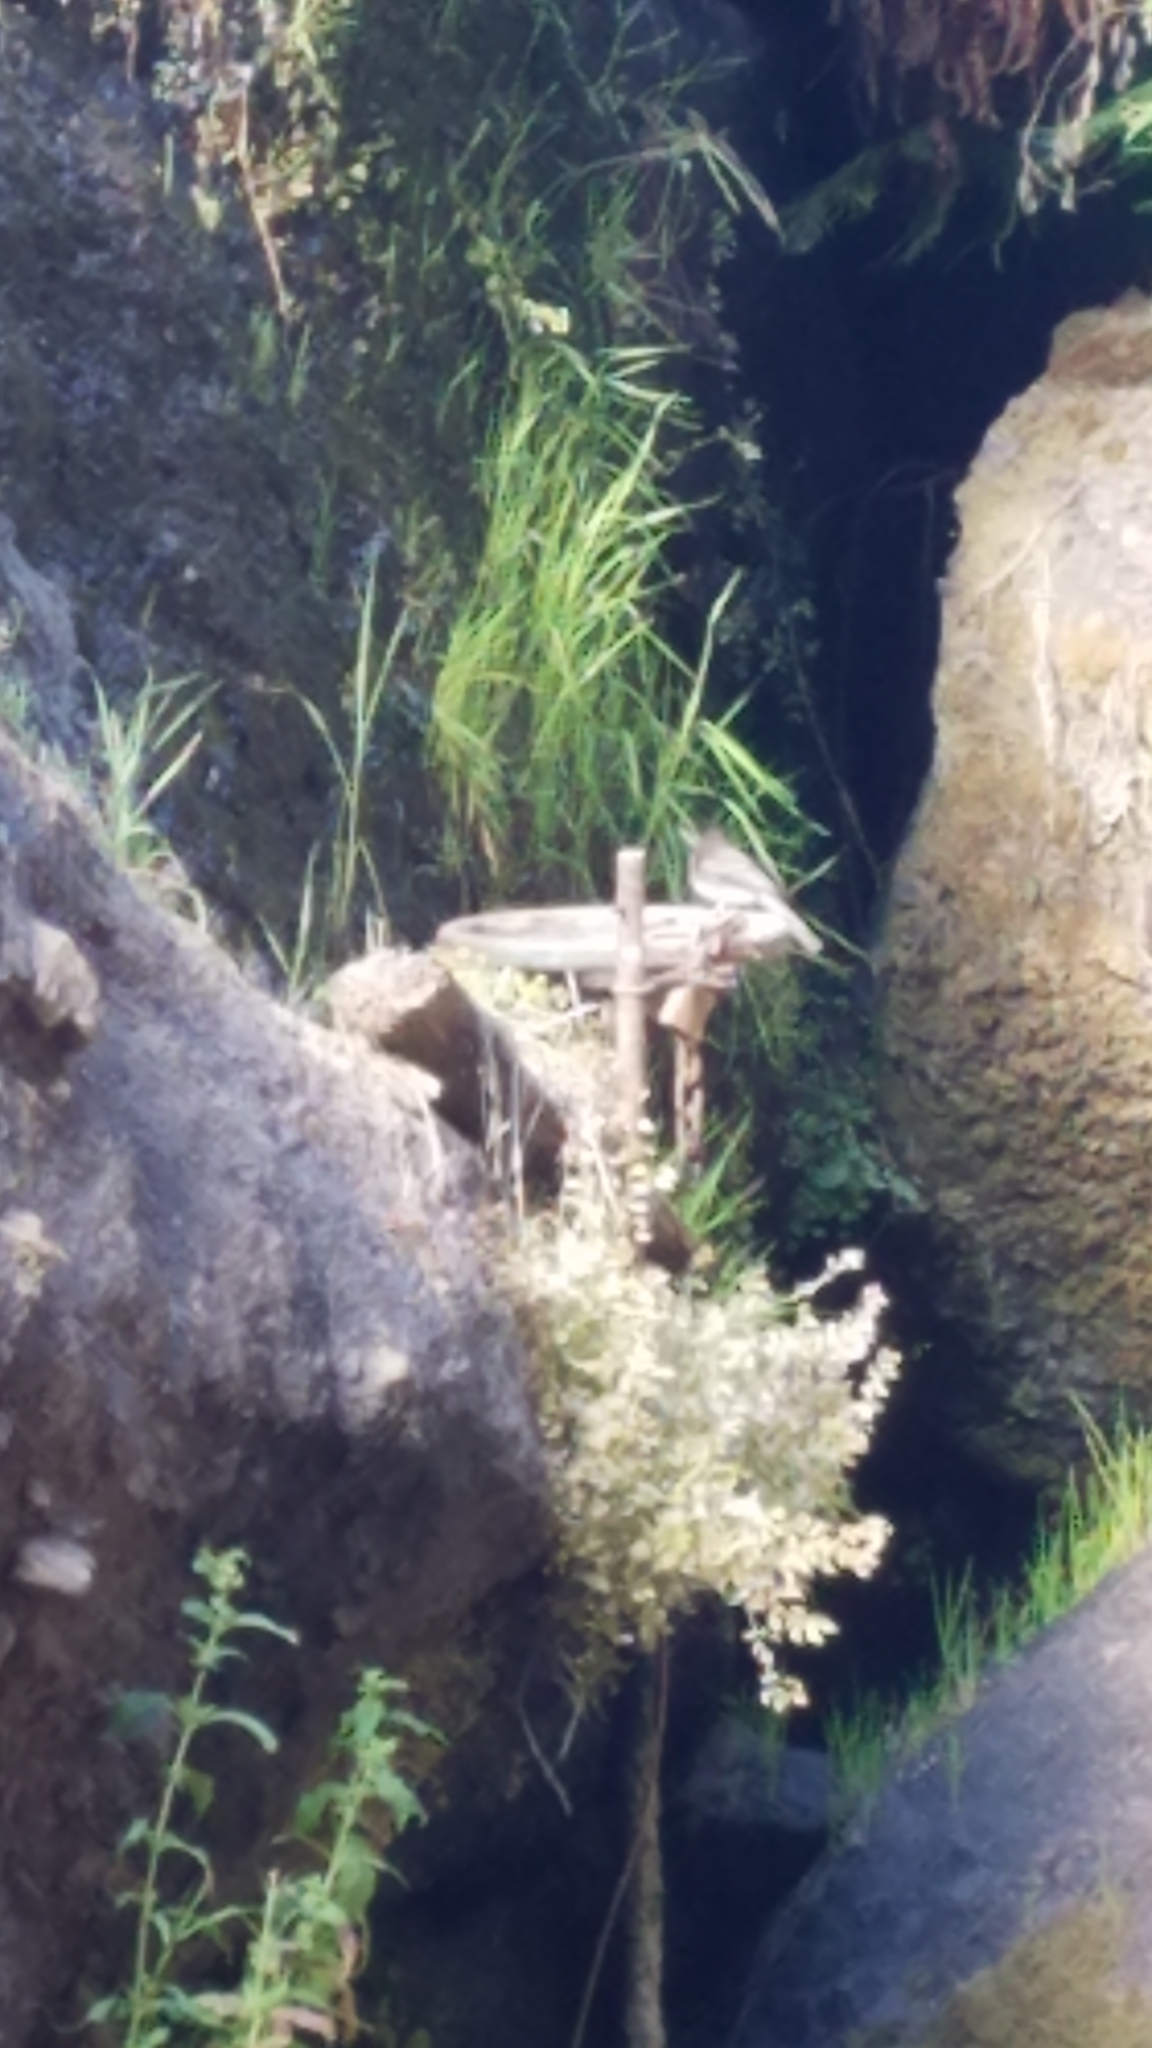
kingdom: Animalia
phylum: Chordata
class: Aves
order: Passeriformes
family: Tyrannidae
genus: Sayornis
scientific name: Sayornis nigricans
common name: Black phoebe
